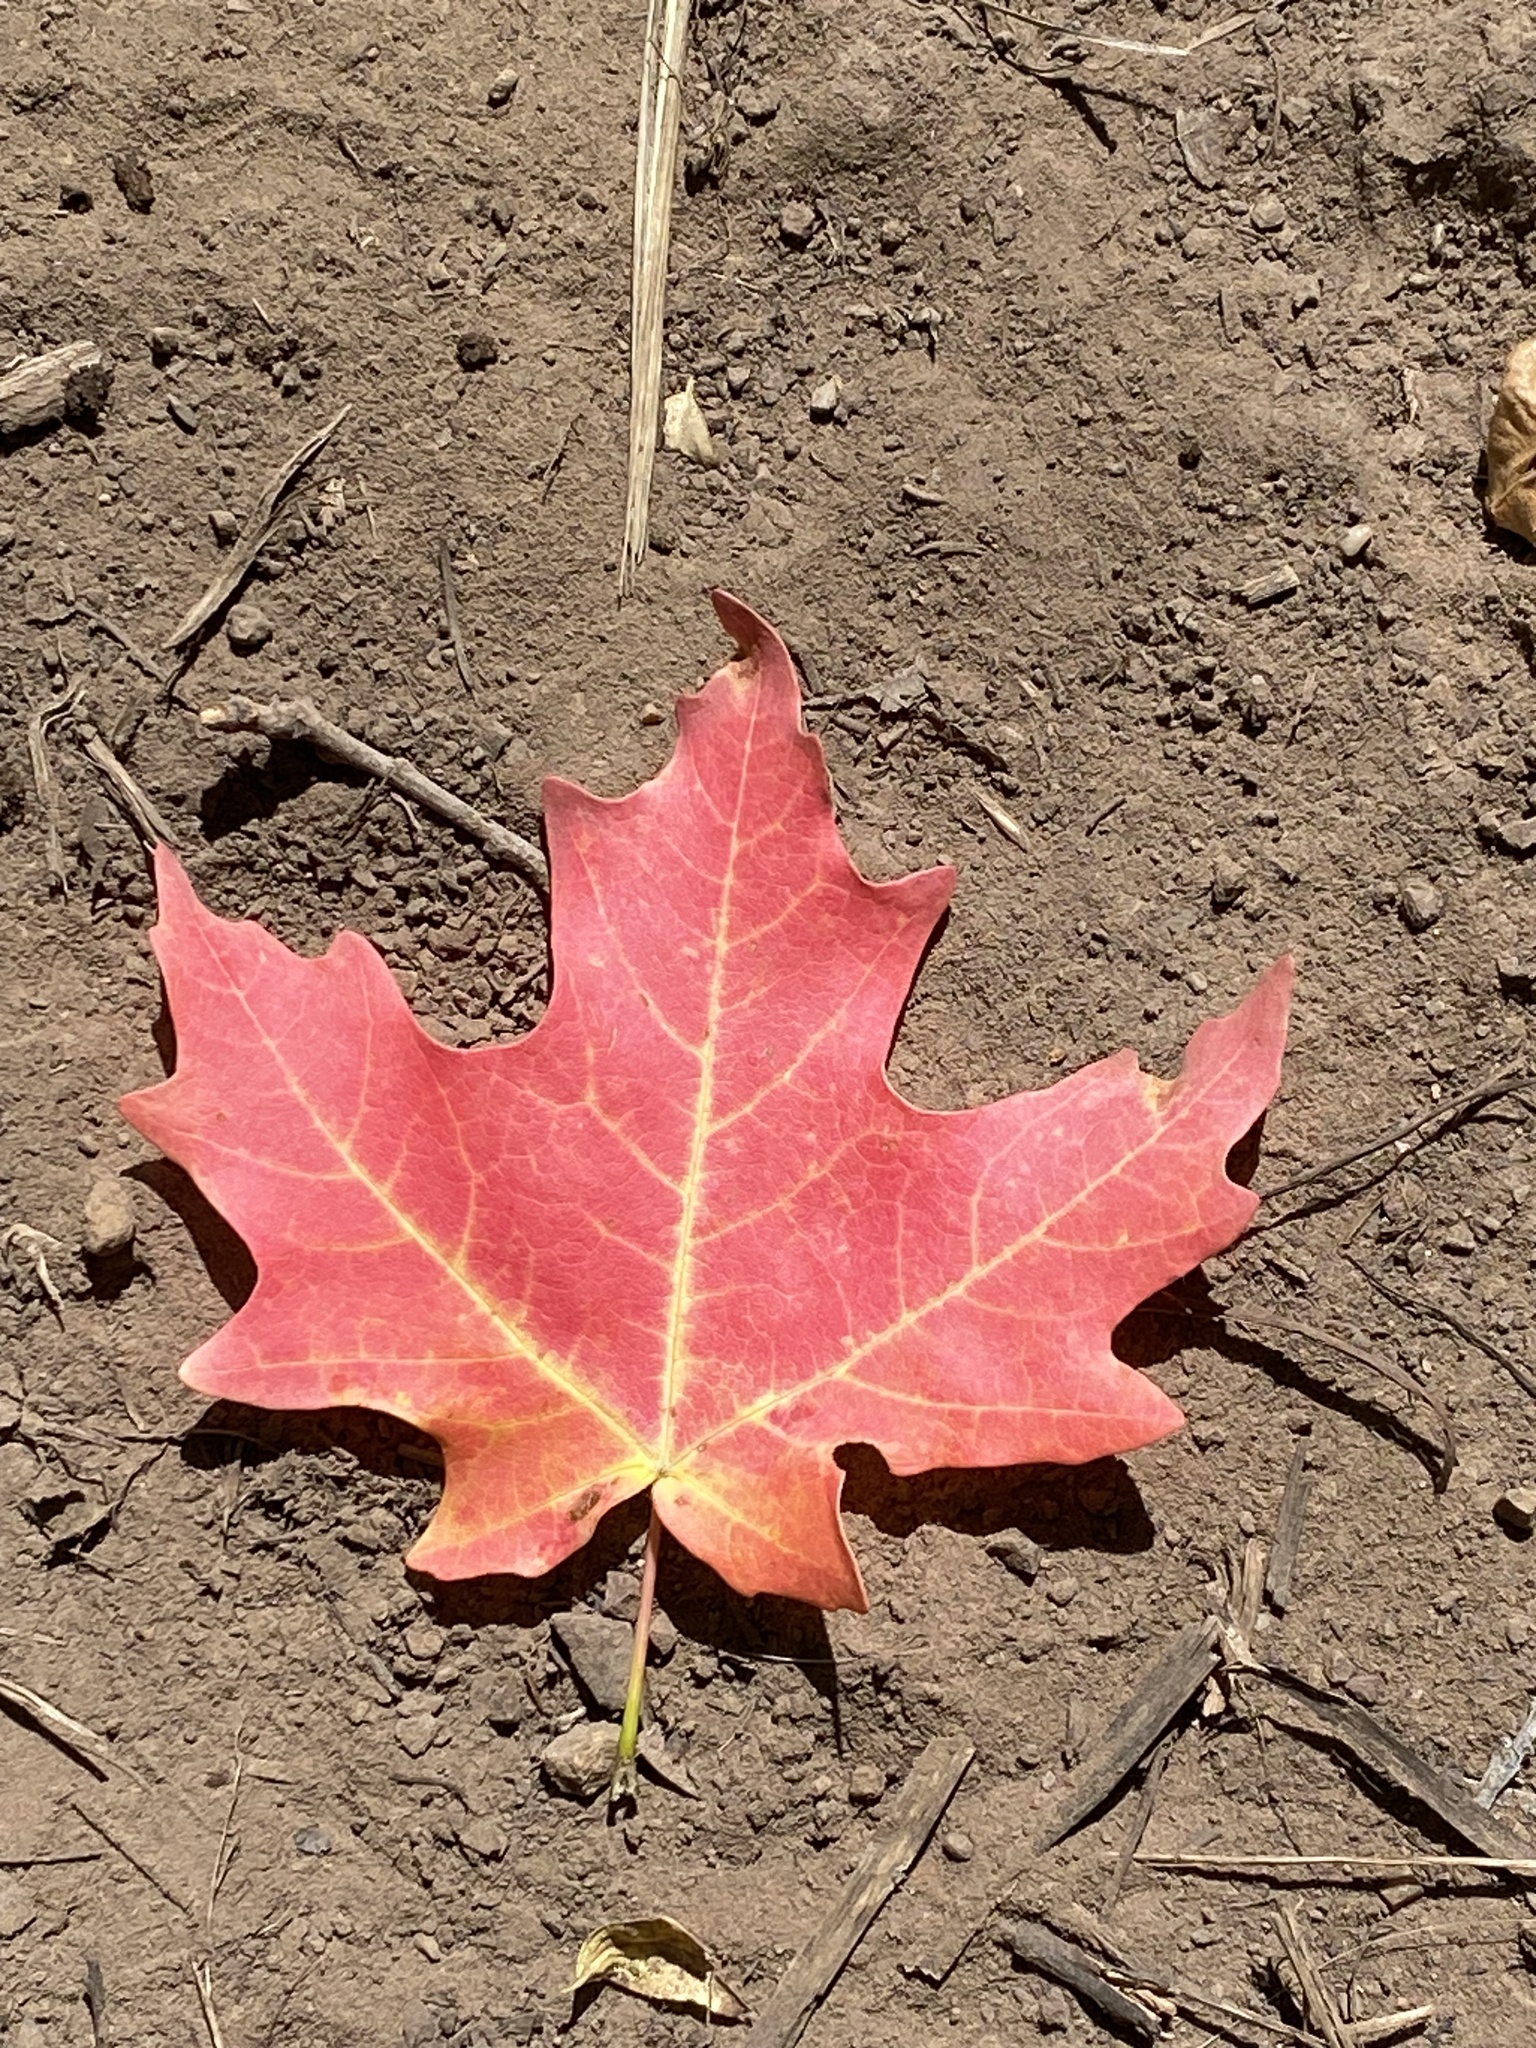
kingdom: Plantae
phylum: Tracheophyta
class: Magnoliopsida
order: Sapindales
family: Sapindaceae
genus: Acer
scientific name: Acer grandidentatum
